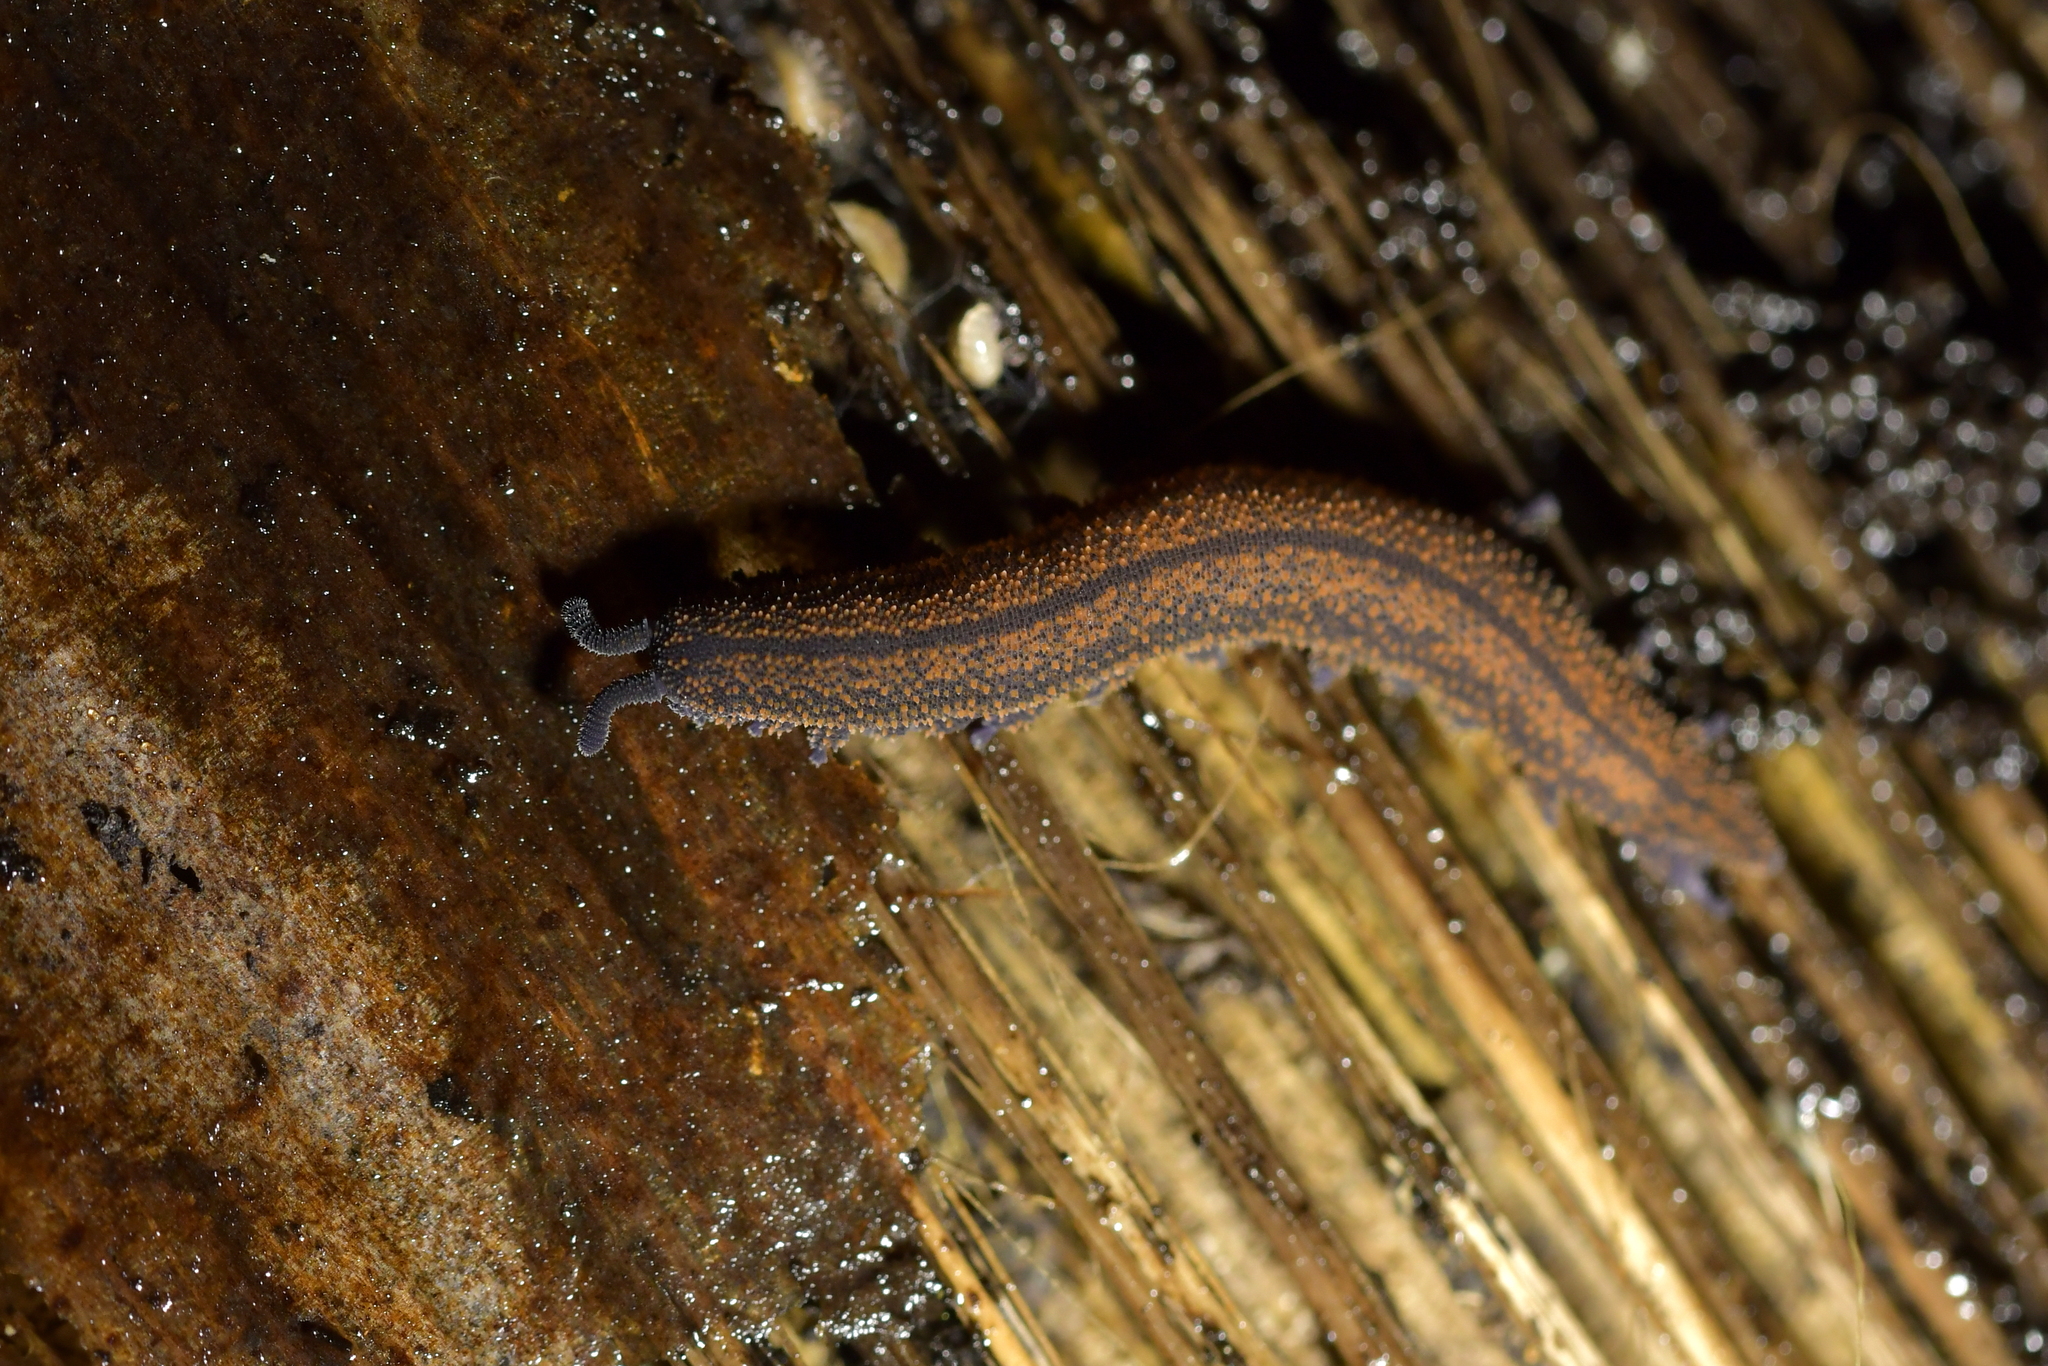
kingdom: Animalia
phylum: Onychophora
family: Peripatopsidae
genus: Peripatoides
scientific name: Peripatoides novaezealandiae
